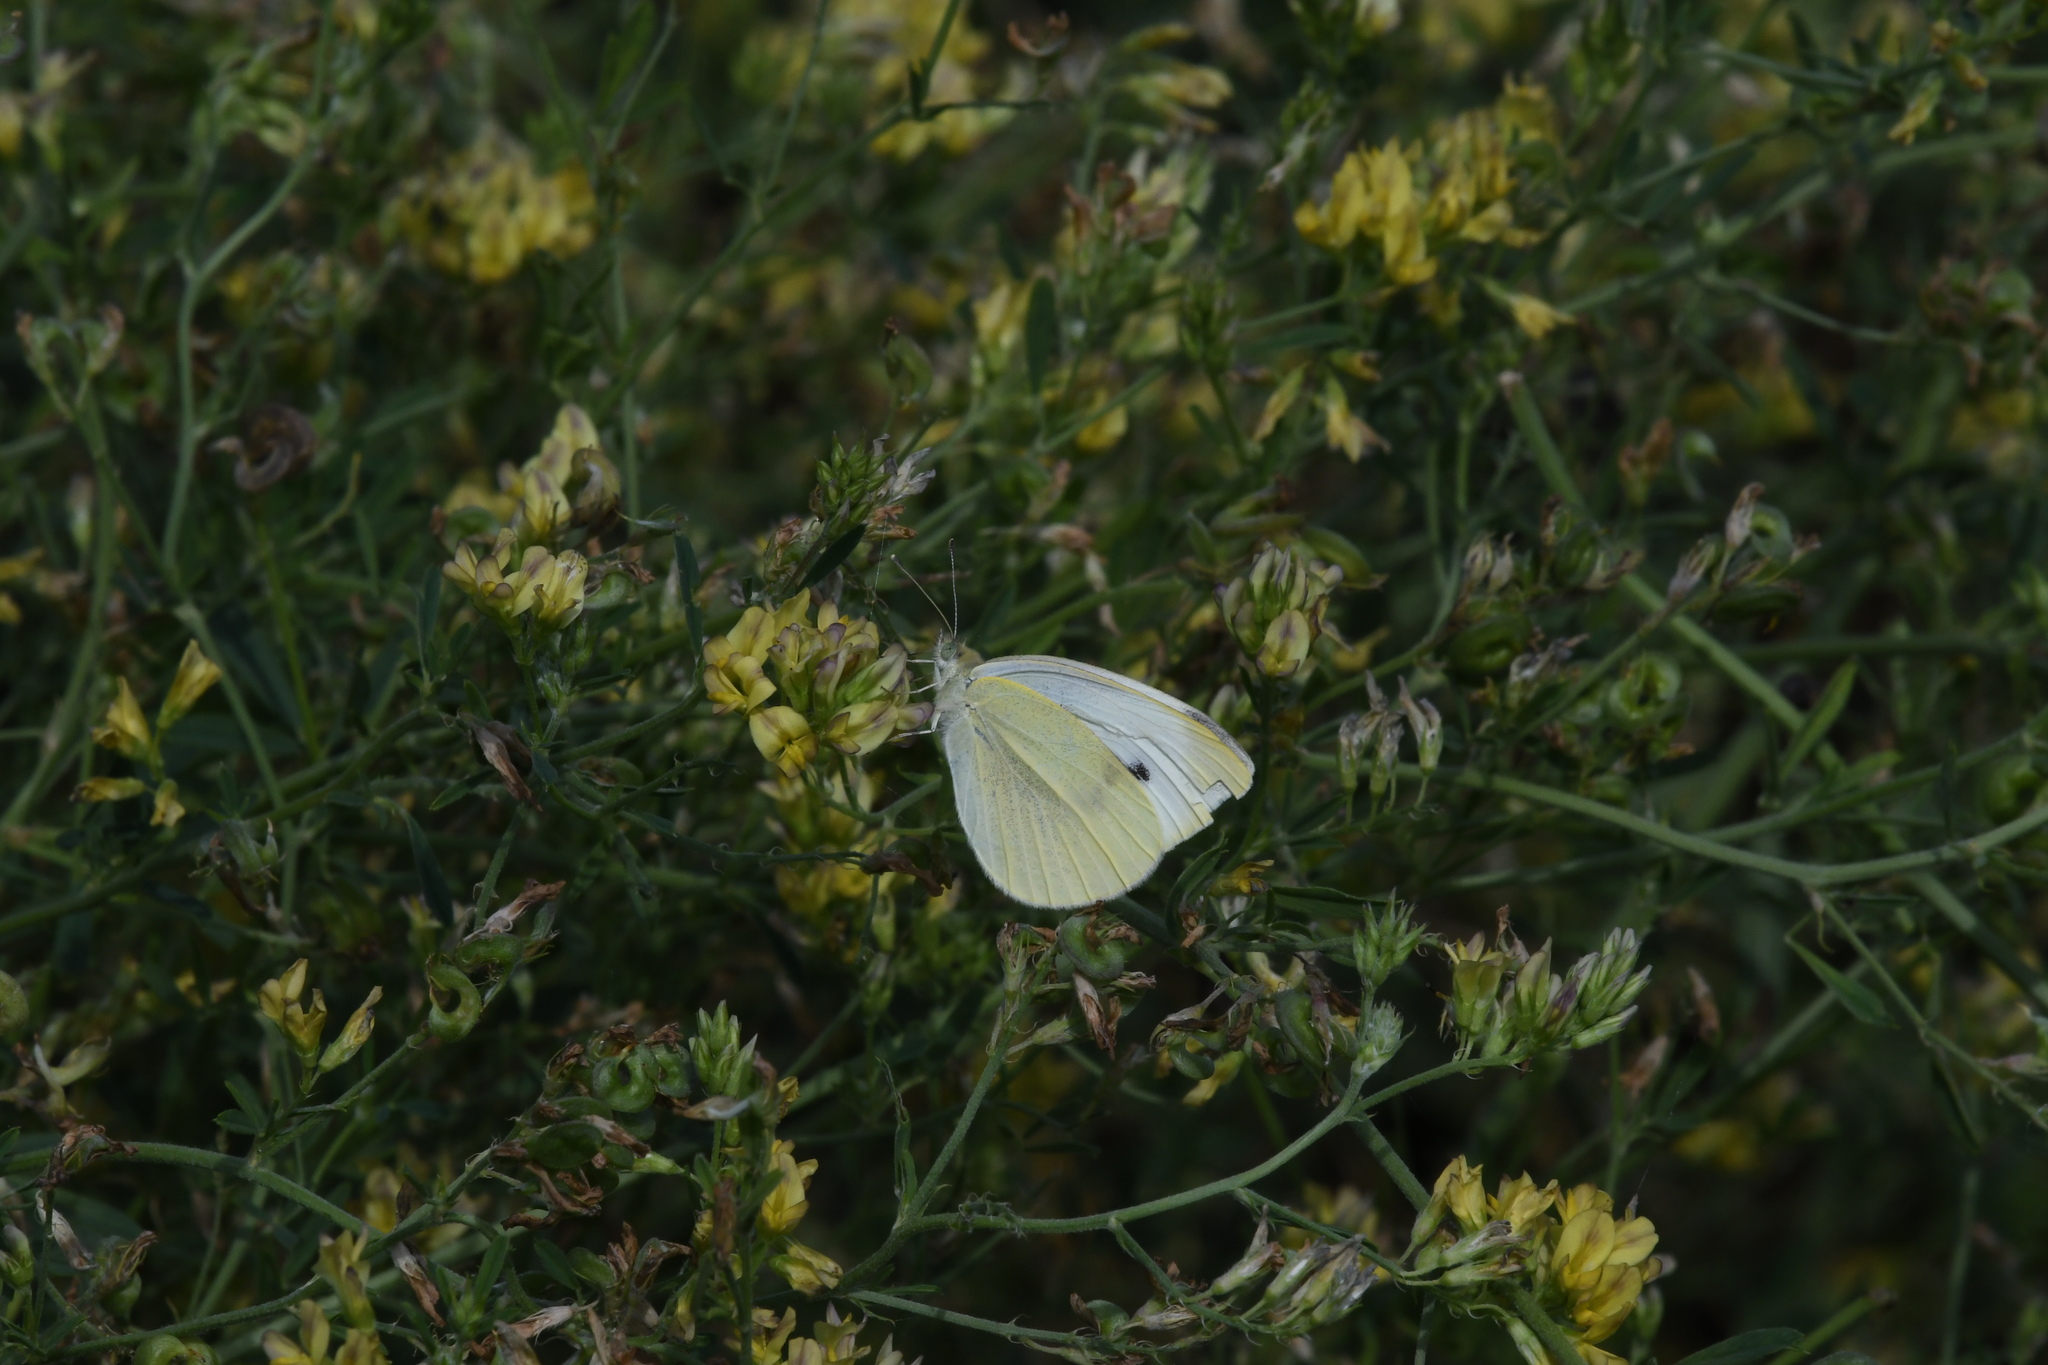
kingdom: Animalia
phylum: Arthropoda
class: Insecta
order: Lepidoptera
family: Pieridae
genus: Pieris
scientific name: Pieris rapae
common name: Small white
